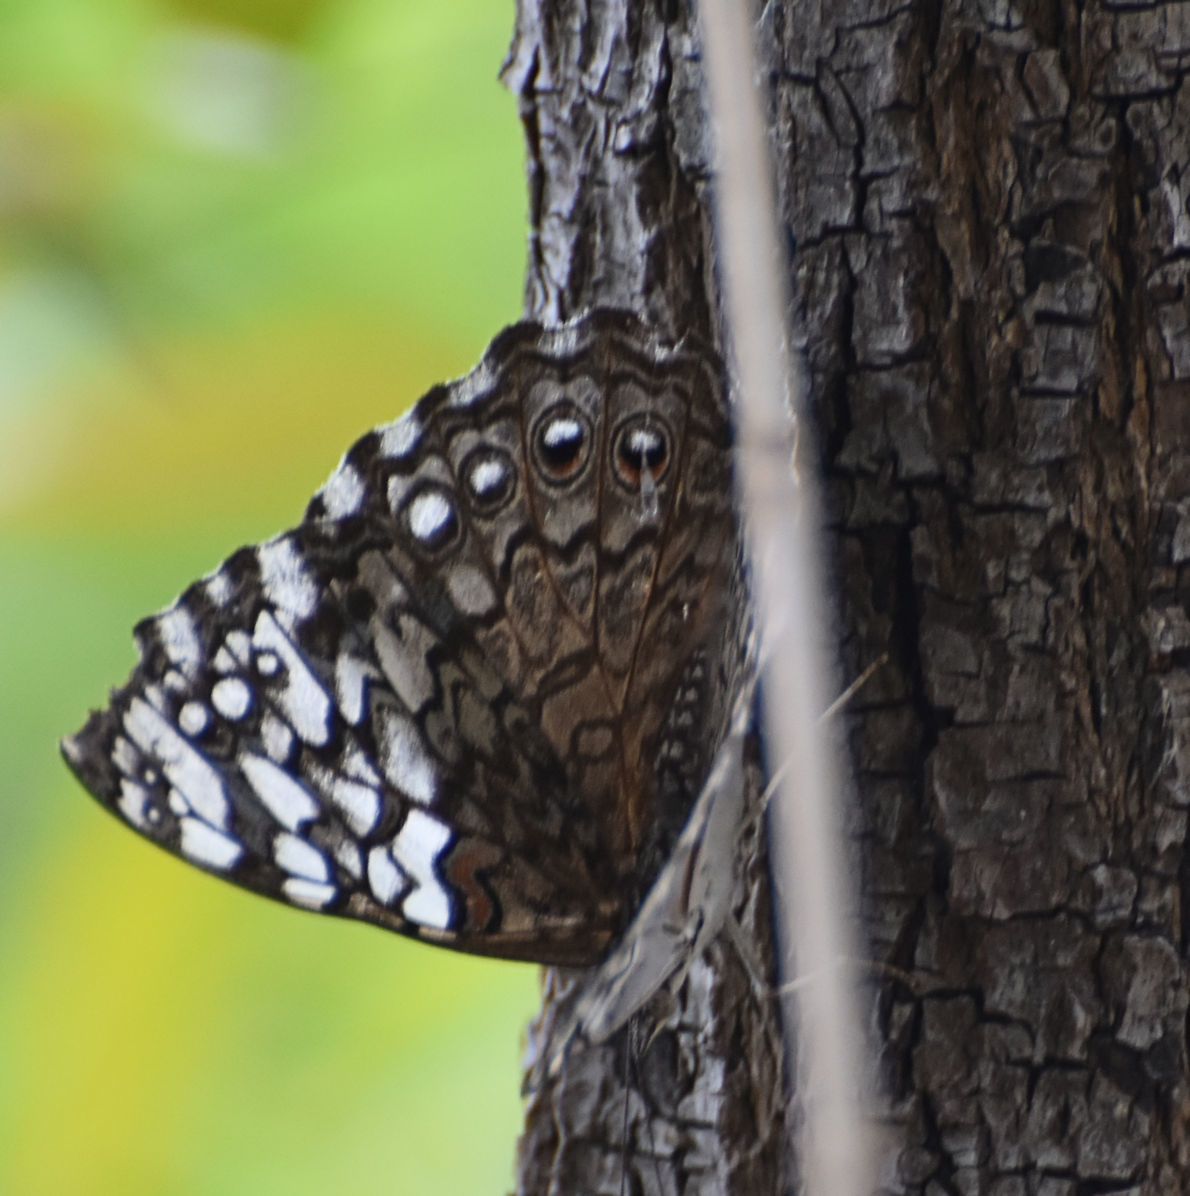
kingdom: Animalia
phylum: Arthropoda
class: Insecta
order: Lepidoptera
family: Nymphalidae
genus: Hamadryas
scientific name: Hamadryas februa
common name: Gray cracker
